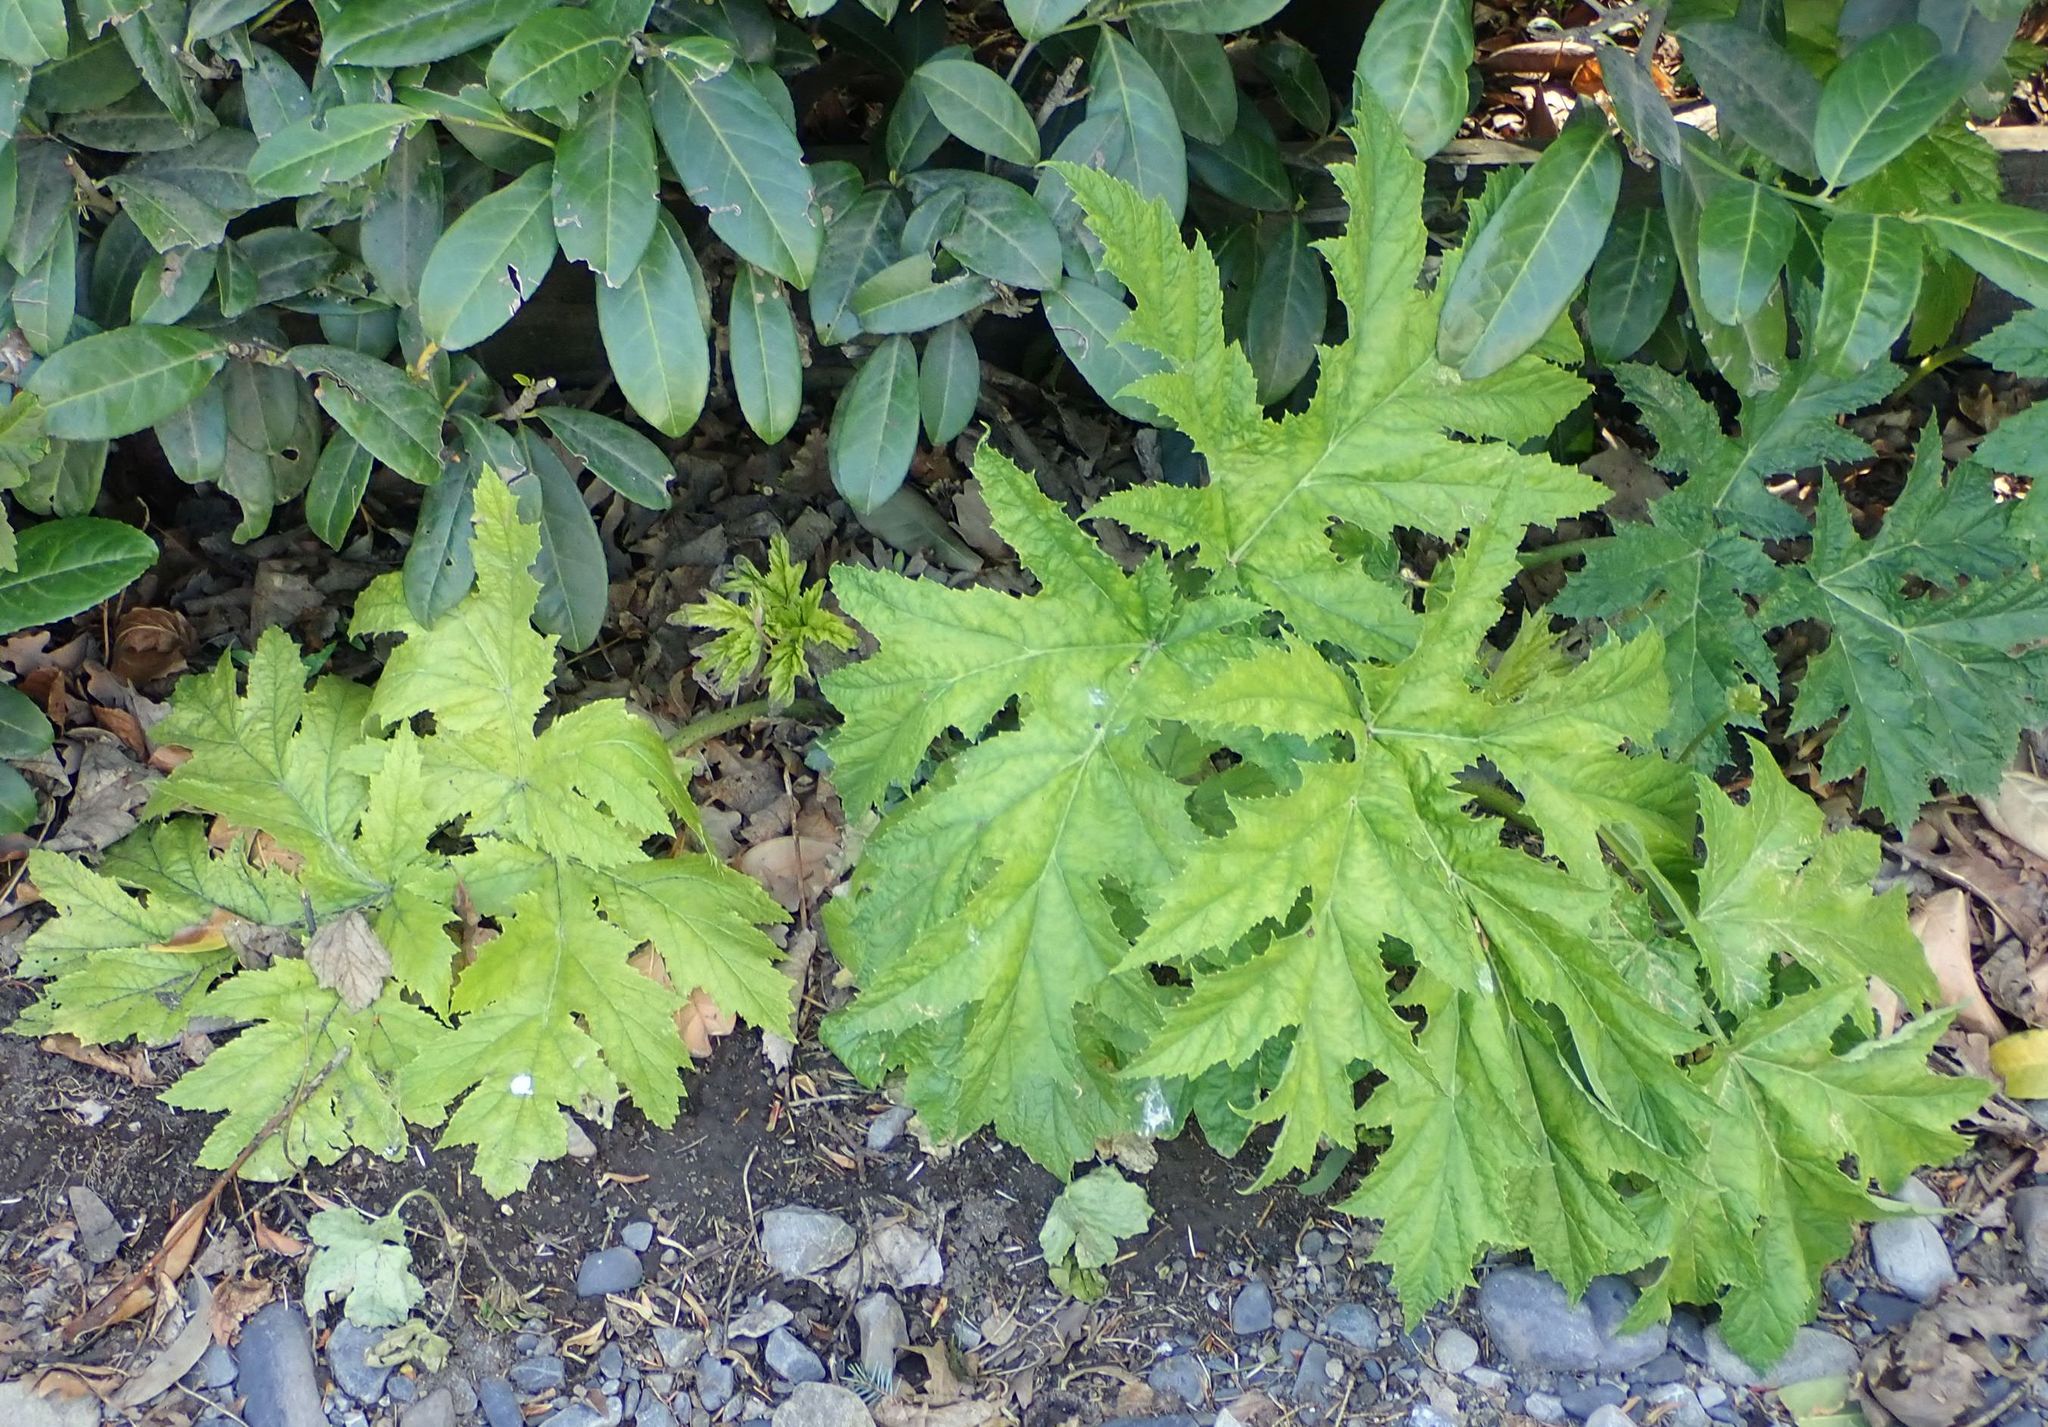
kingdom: Plantae
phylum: Tracheophyta
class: Magnoliopsida
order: Apiales
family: Apiaceae
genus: Heracleum
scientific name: Heracleum mantegazzianum
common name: Giant hogweed
